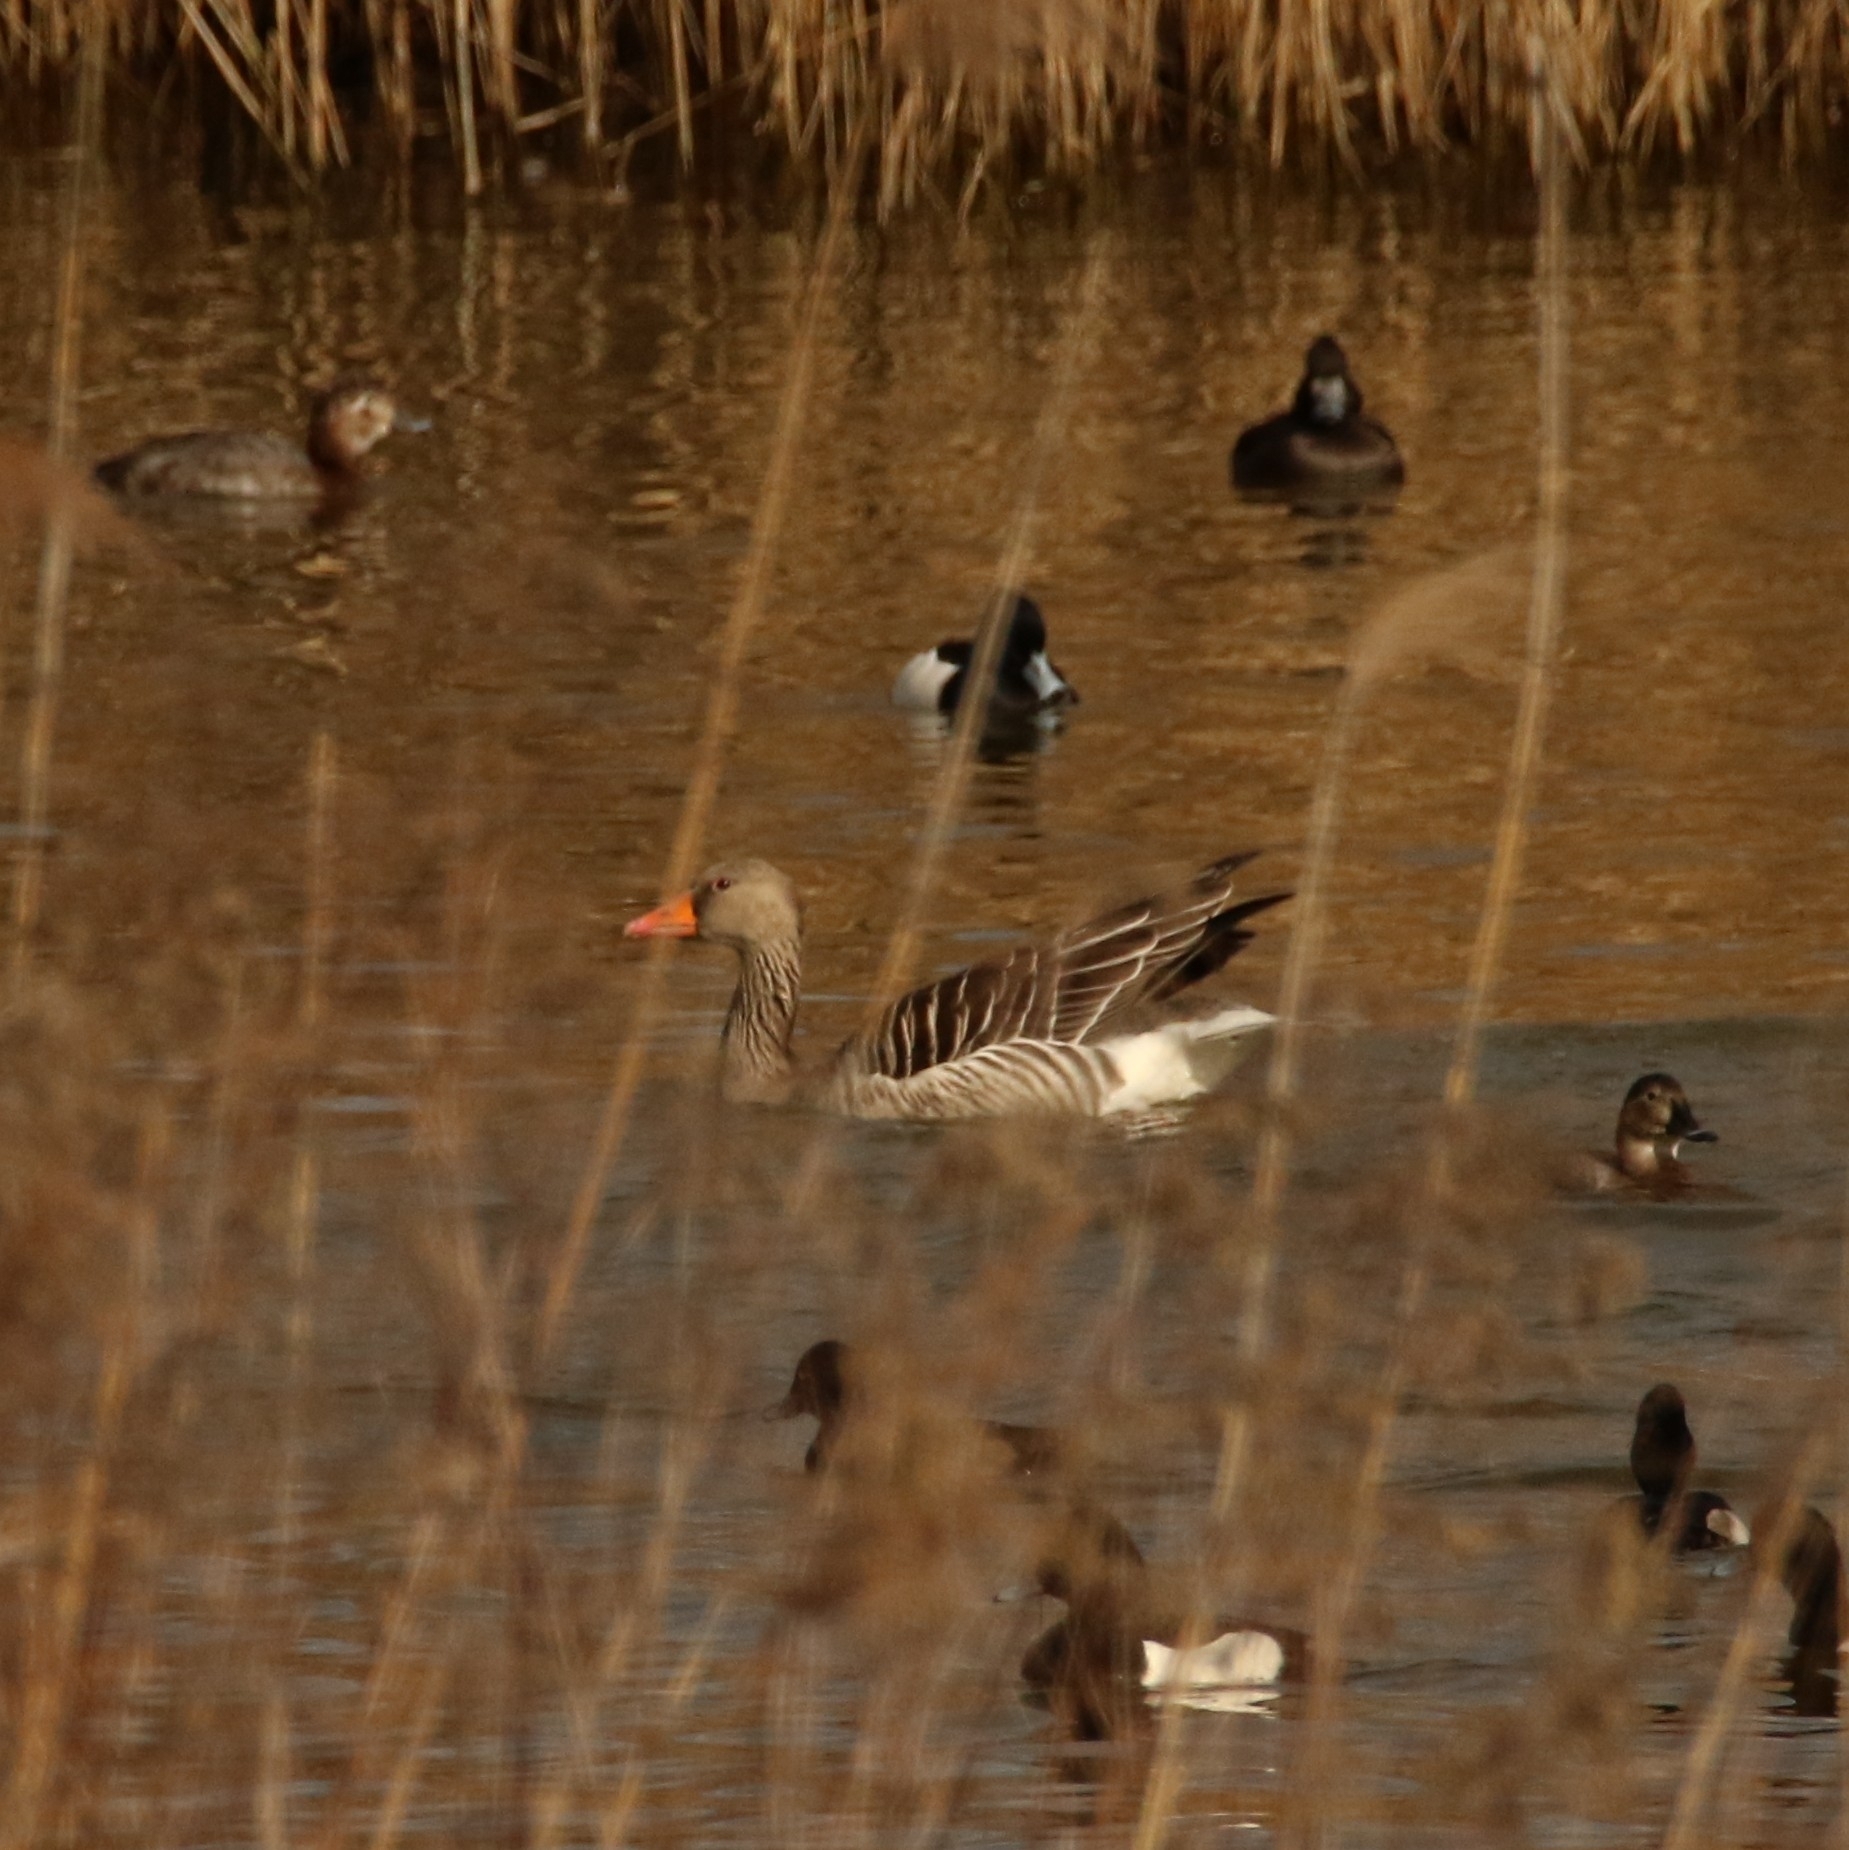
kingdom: Animalia
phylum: Chordata
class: Aves
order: Anseriformes
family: Anatidae
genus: Anser
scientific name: Anser anser
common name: Greylag goose
